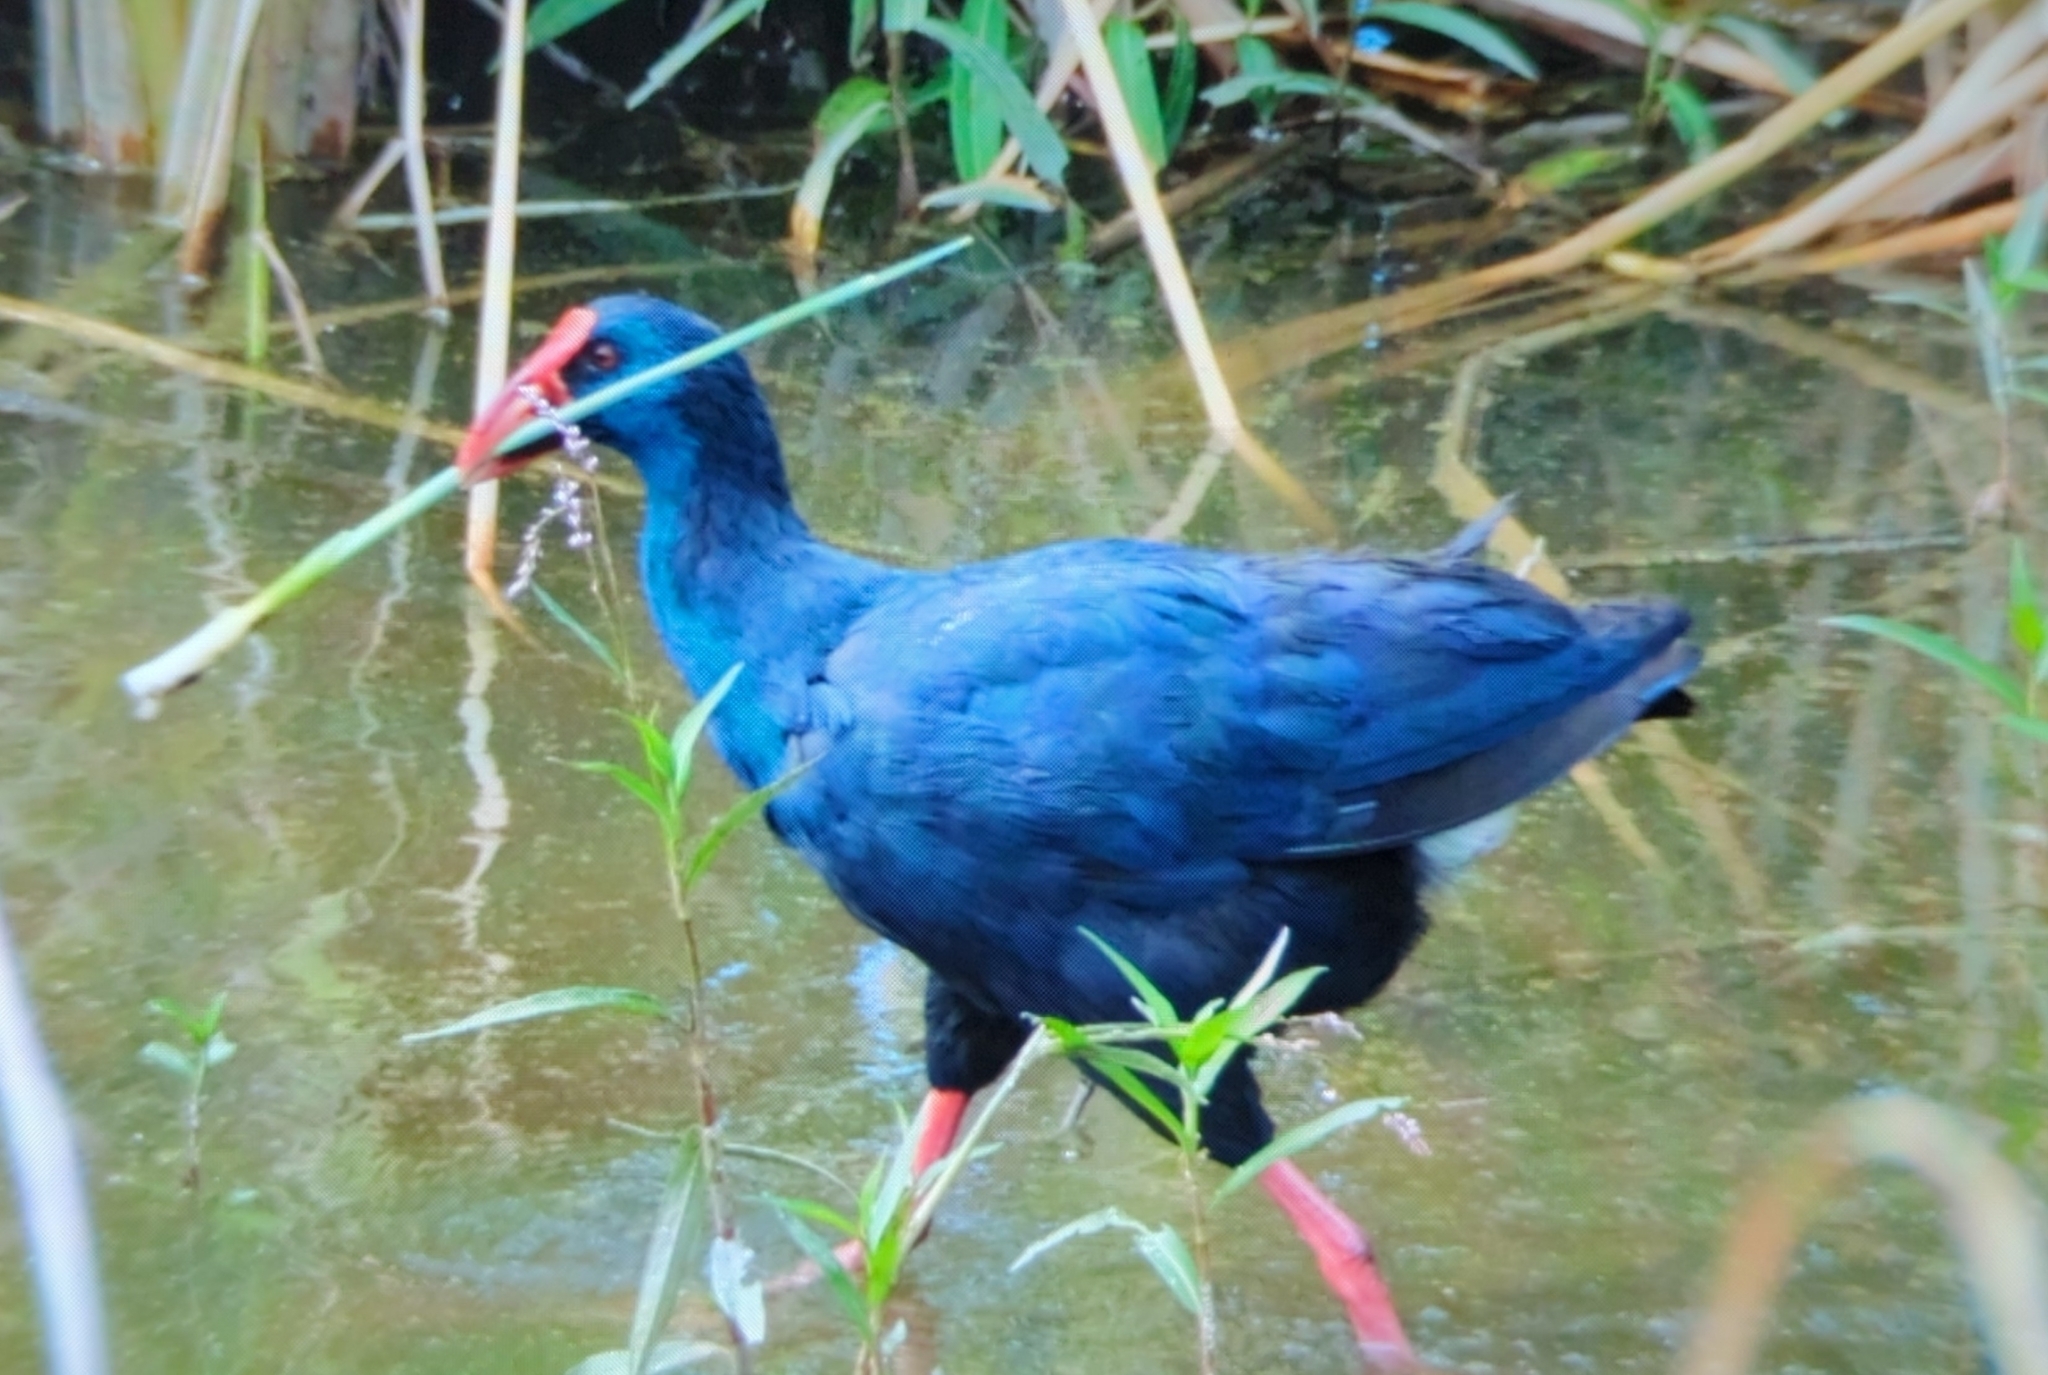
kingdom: Animalia
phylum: Chordata
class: Aves
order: Gruiformes
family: Rallidae
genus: Porphyrio
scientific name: Porphyrio porphyrio
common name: Purple swamphen
